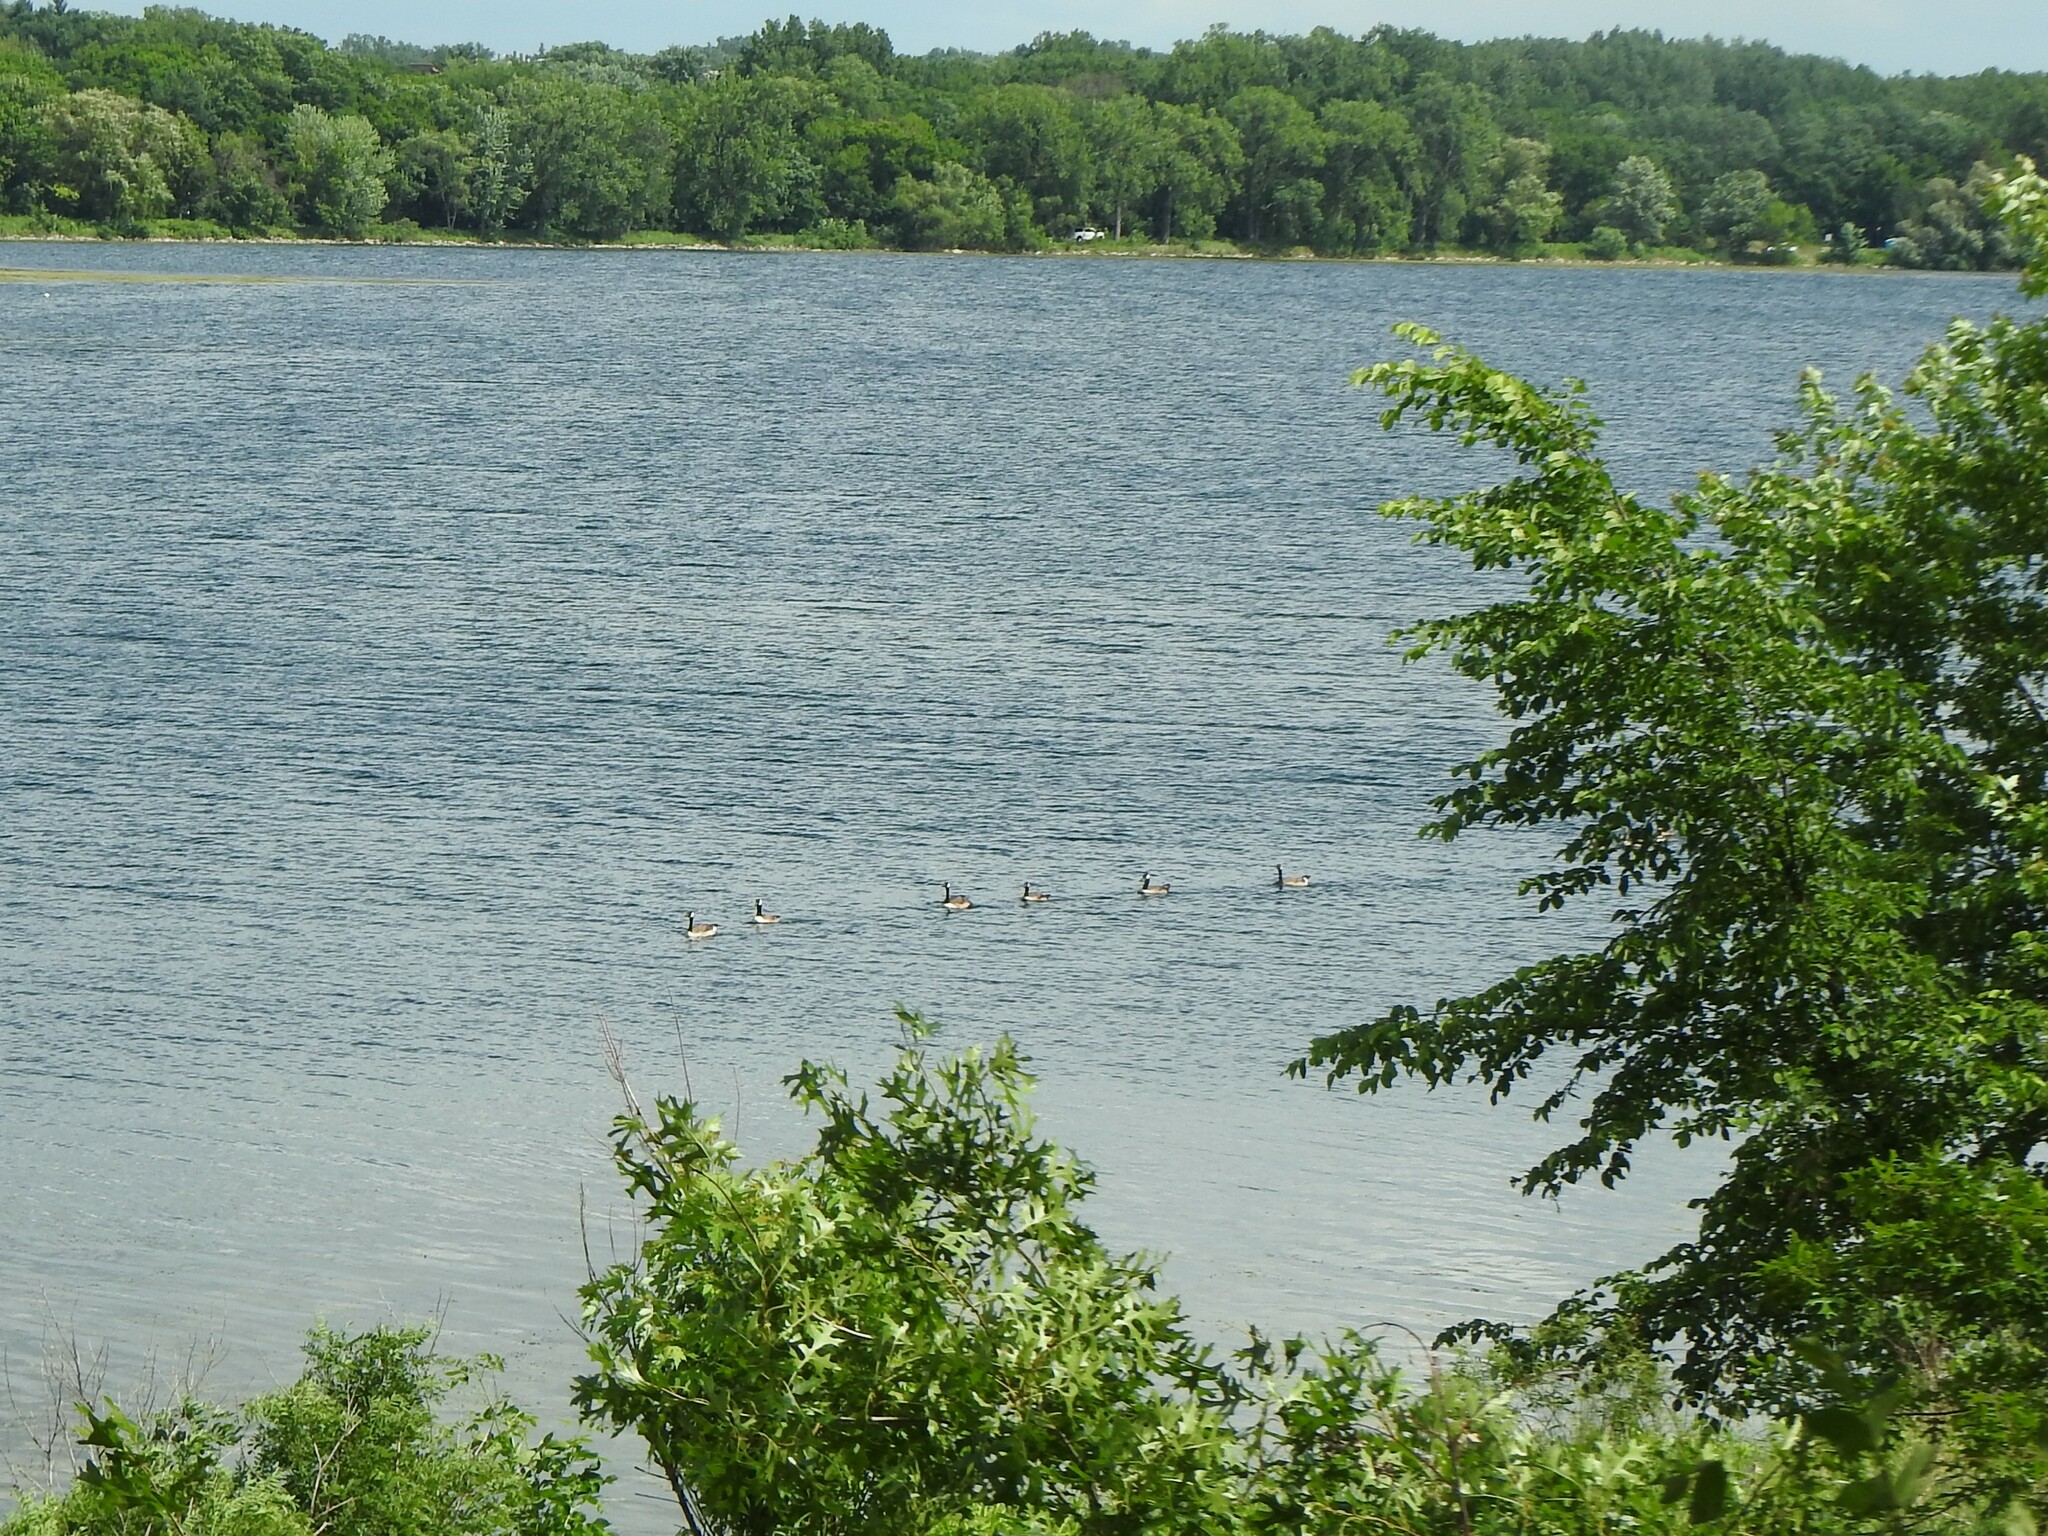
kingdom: Animalia
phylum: Chordata
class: Aves
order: Anseriformes
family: Anatidae
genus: Branta
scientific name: Branta canadensis
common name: Canada goose
